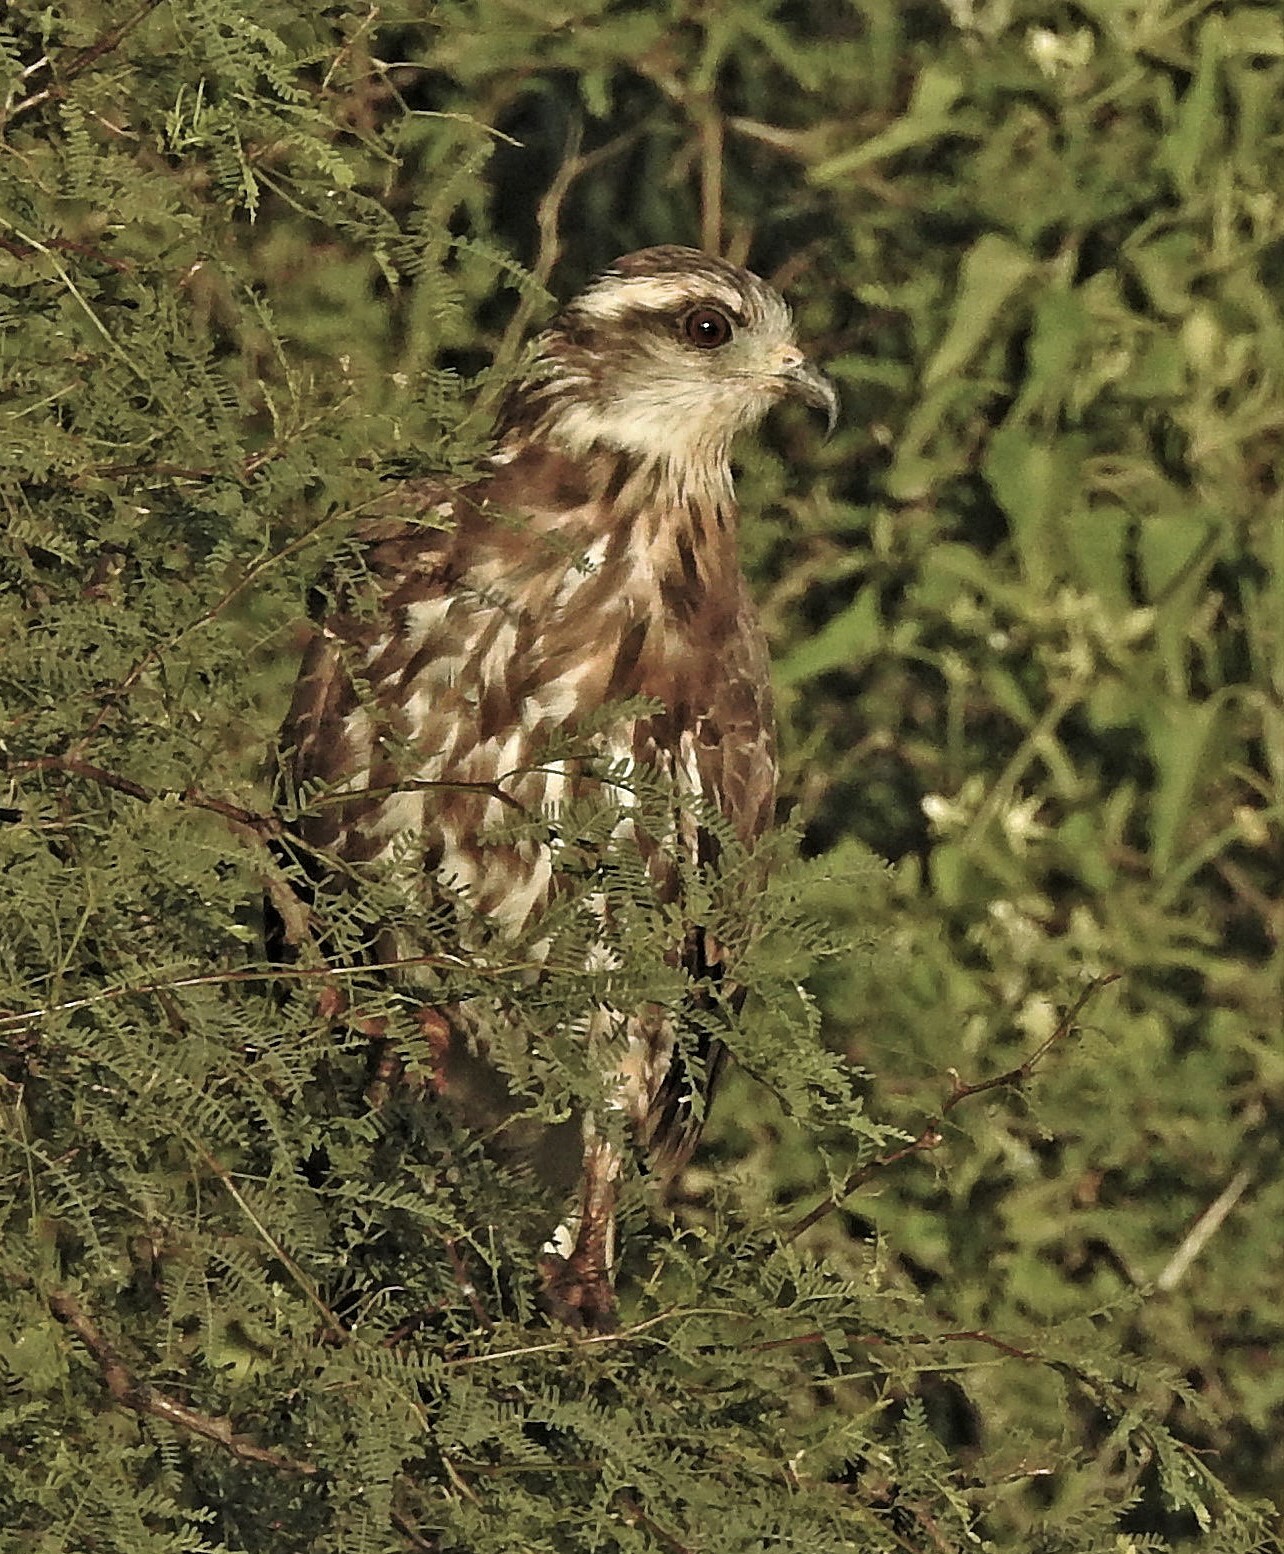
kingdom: Animalia
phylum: Chordata
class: Aves
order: Accipitriformes
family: Accipitridae
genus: Rostrhamus
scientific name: Rostrhamus sociabilis
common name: Snail kite
